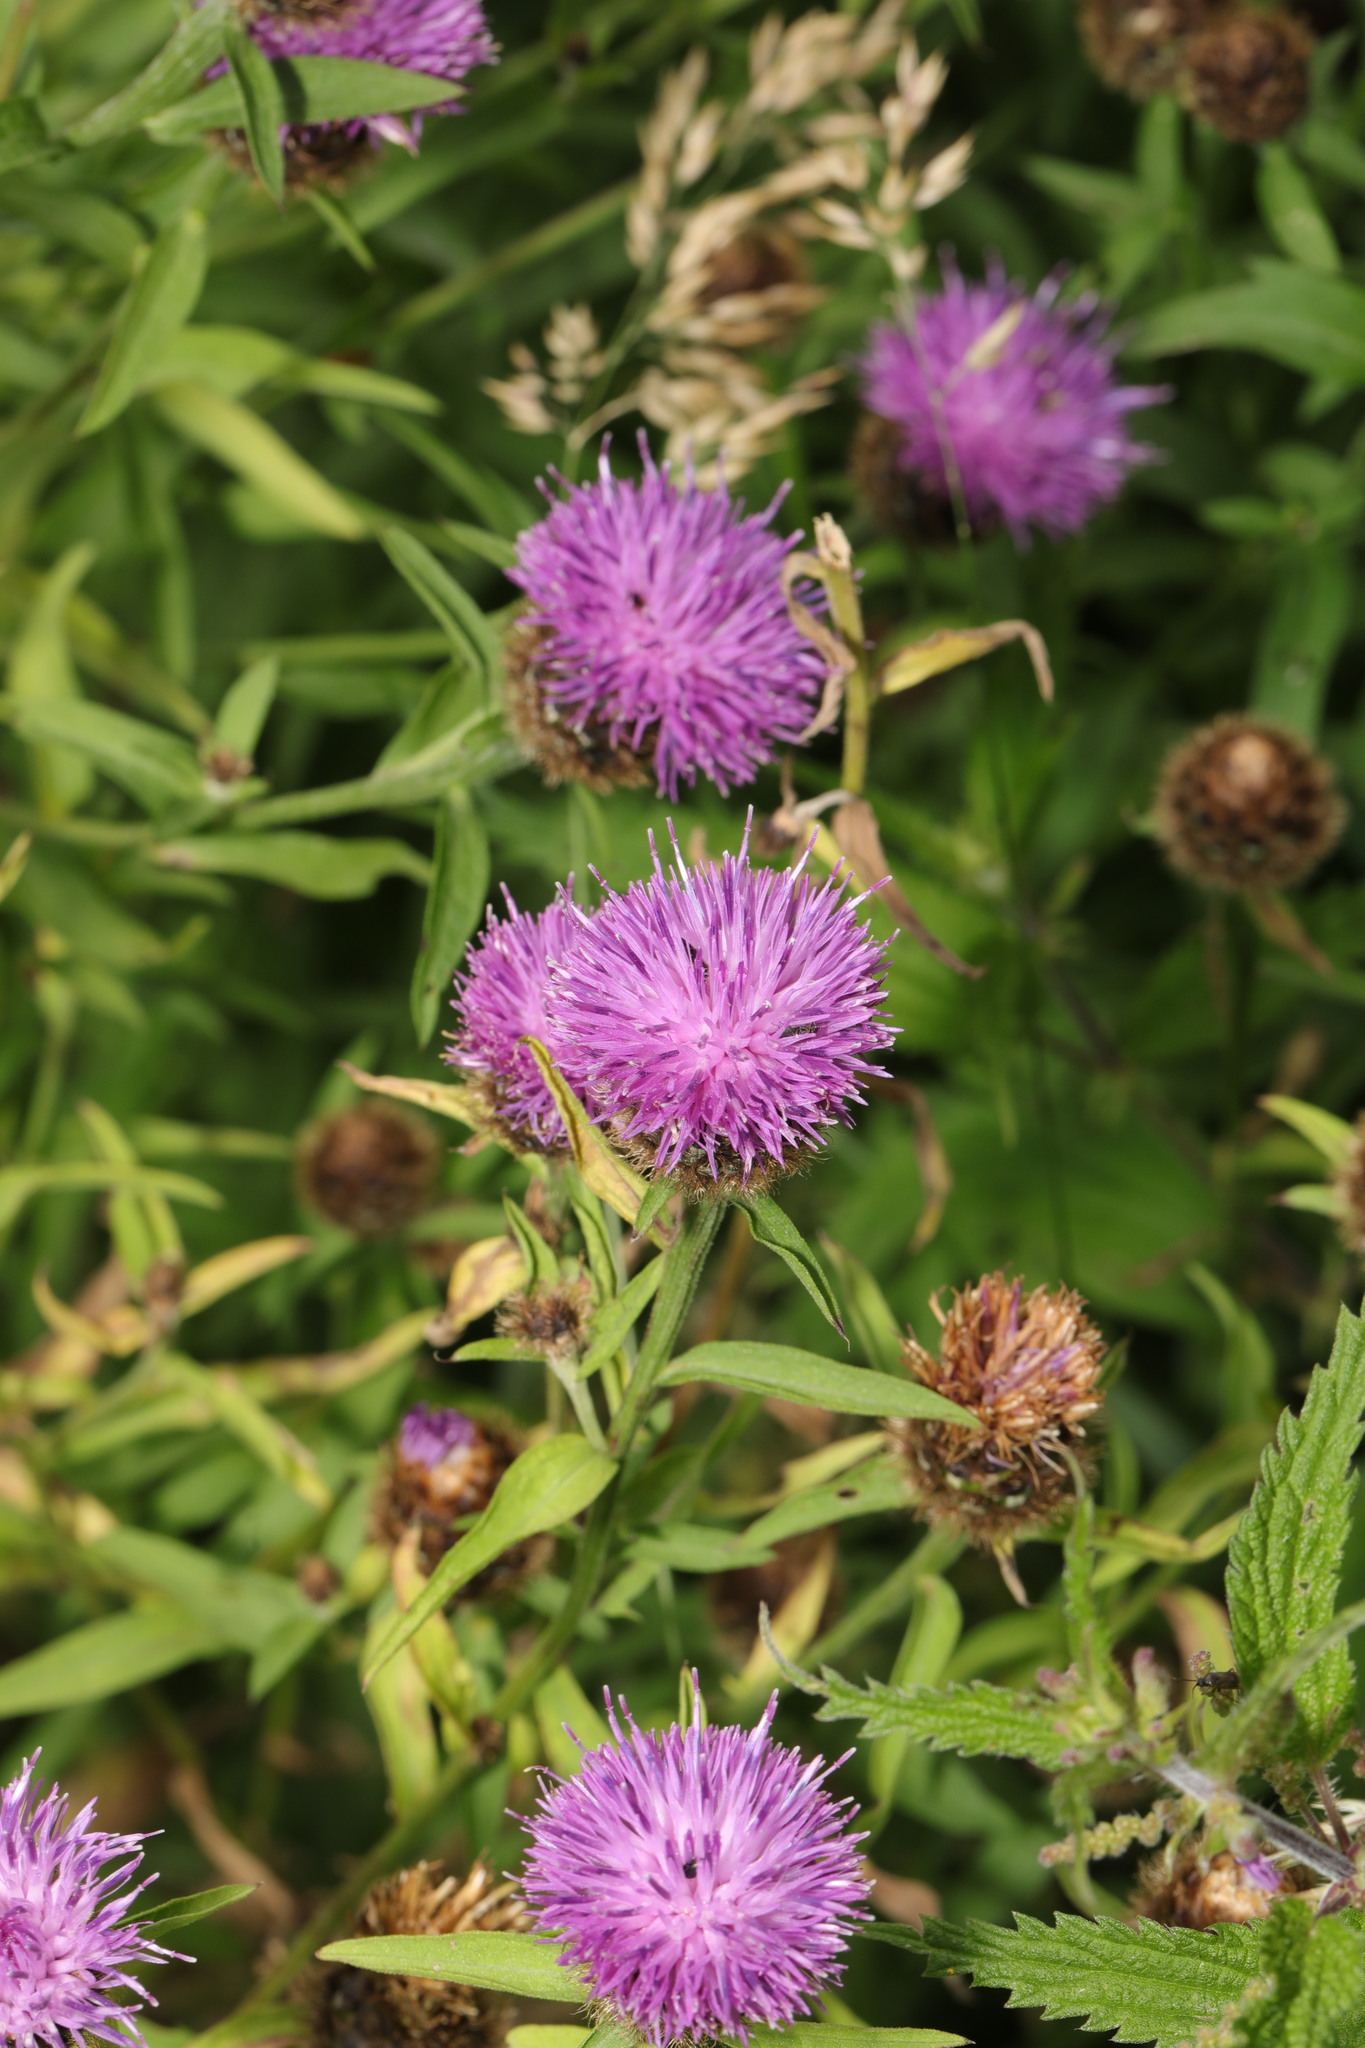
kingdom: Plantae
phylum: Tracheophyta
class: Magnoliopsida
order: Asterales
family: Asteraceae
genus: Centaurea
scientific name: Centaurea nigra
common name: Lesser knapweed
